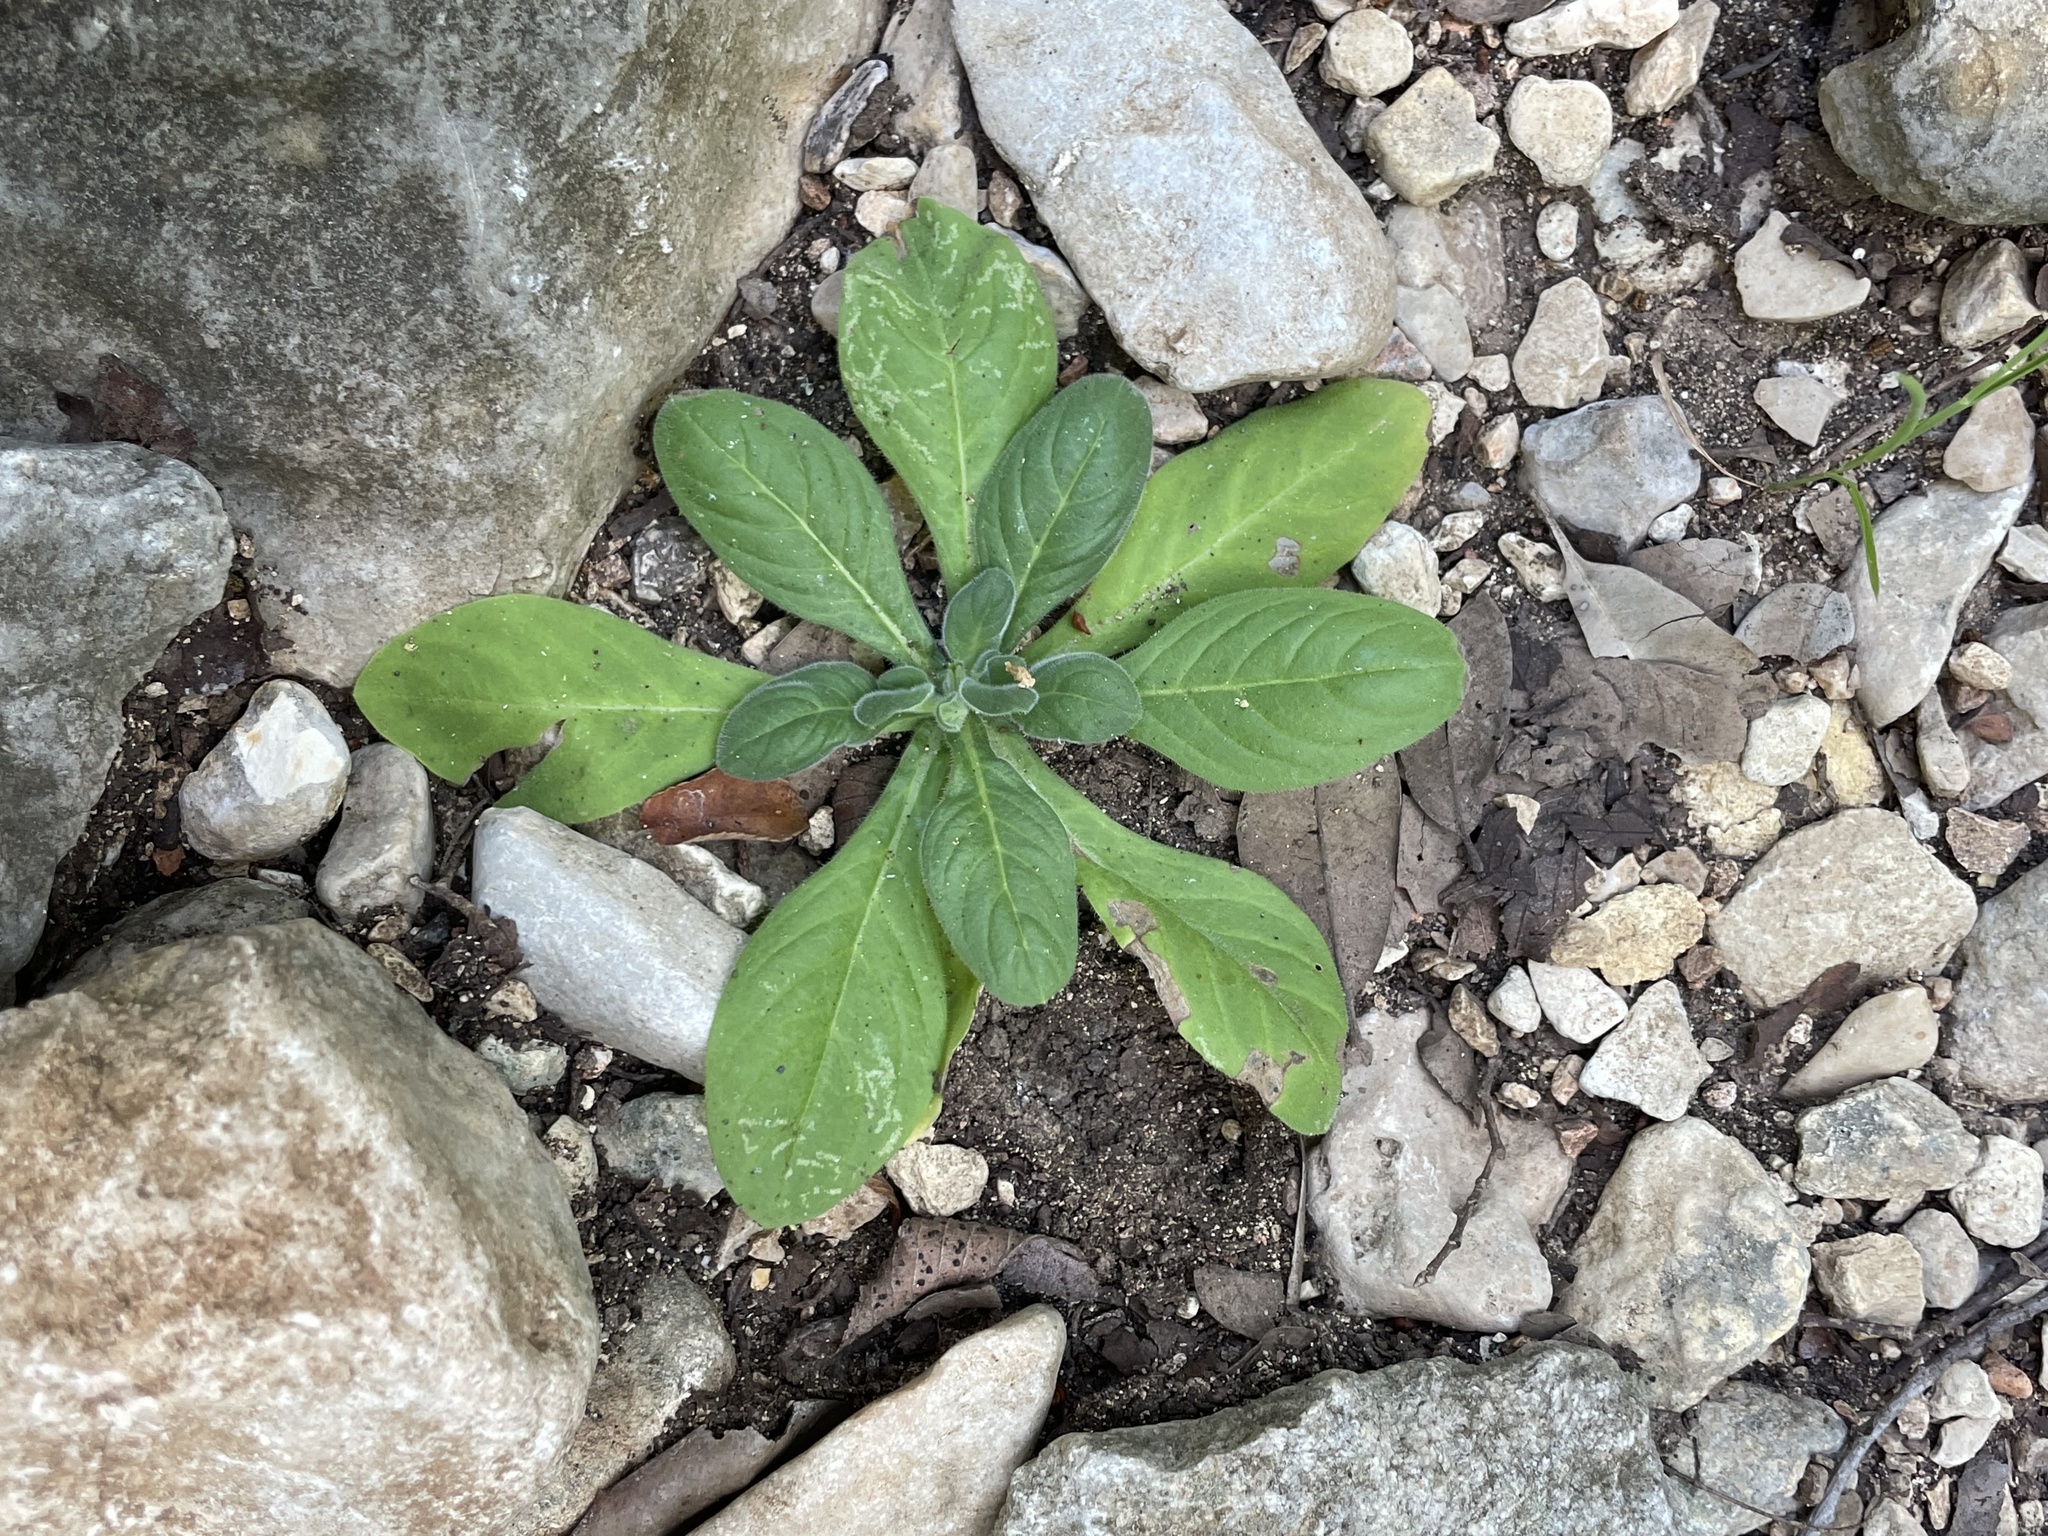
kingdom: Plantae
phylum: Tracheophyta
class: Magnoliopsida
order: Boraginales
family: Namaceae
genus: Nama
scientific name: Nama jamaicensis
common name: Jamaicanweed
